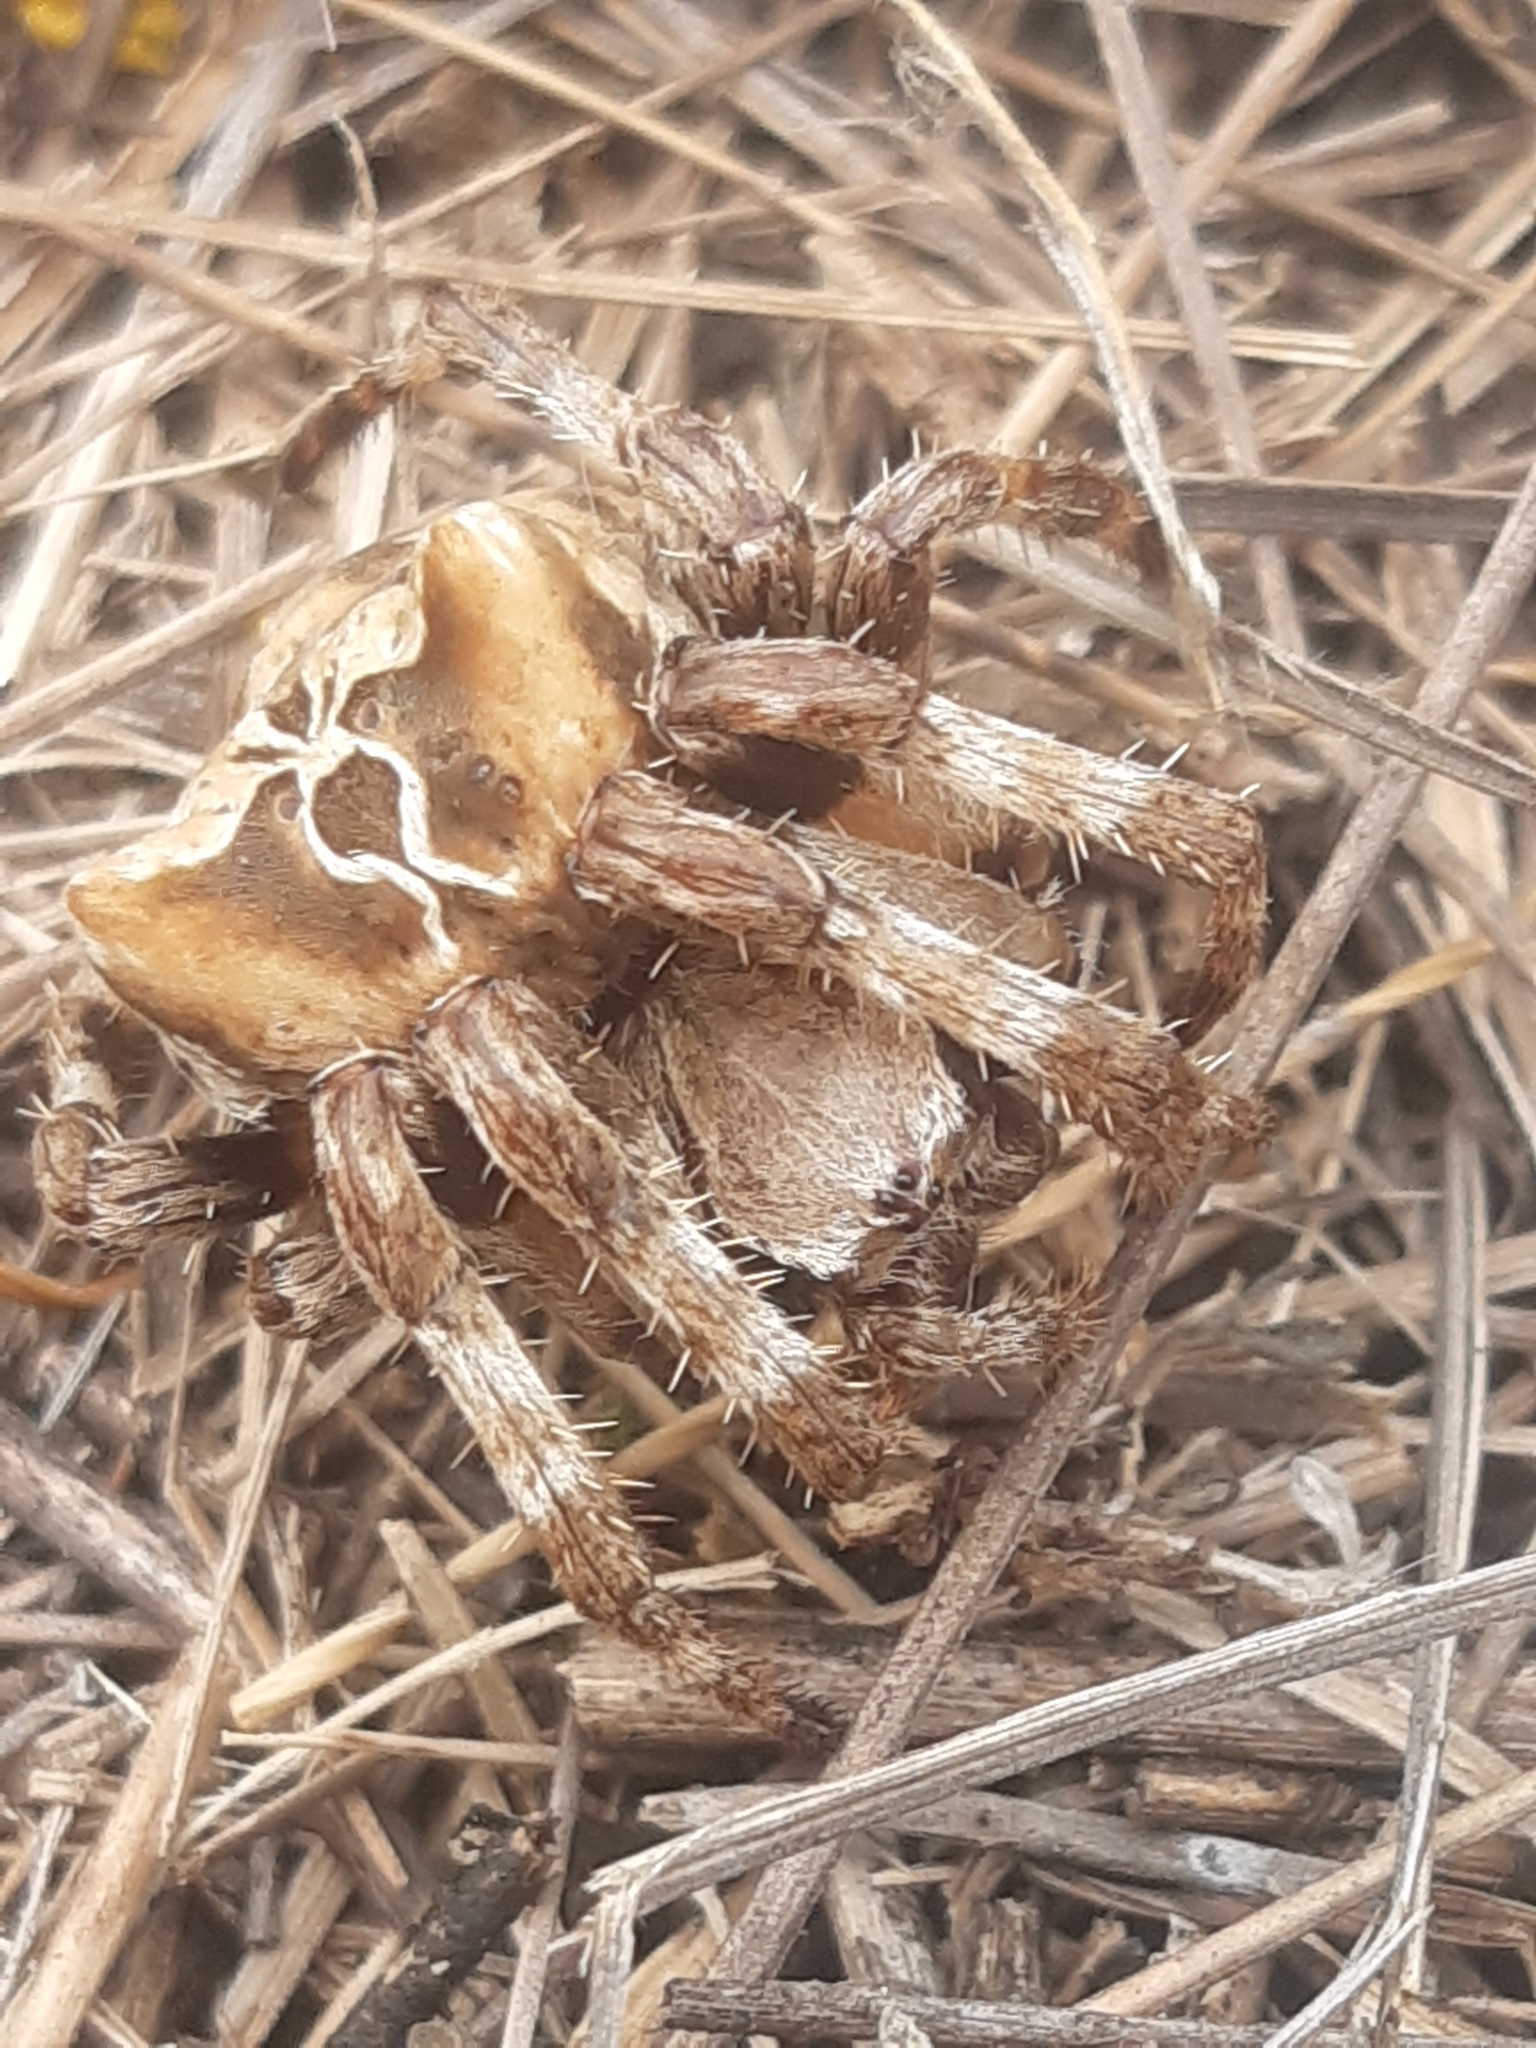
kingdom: Animalia
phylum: Arthropoda
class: Arachnida
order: Araneae
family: Araneidae
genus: Araneus
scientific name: Araneus grossus
